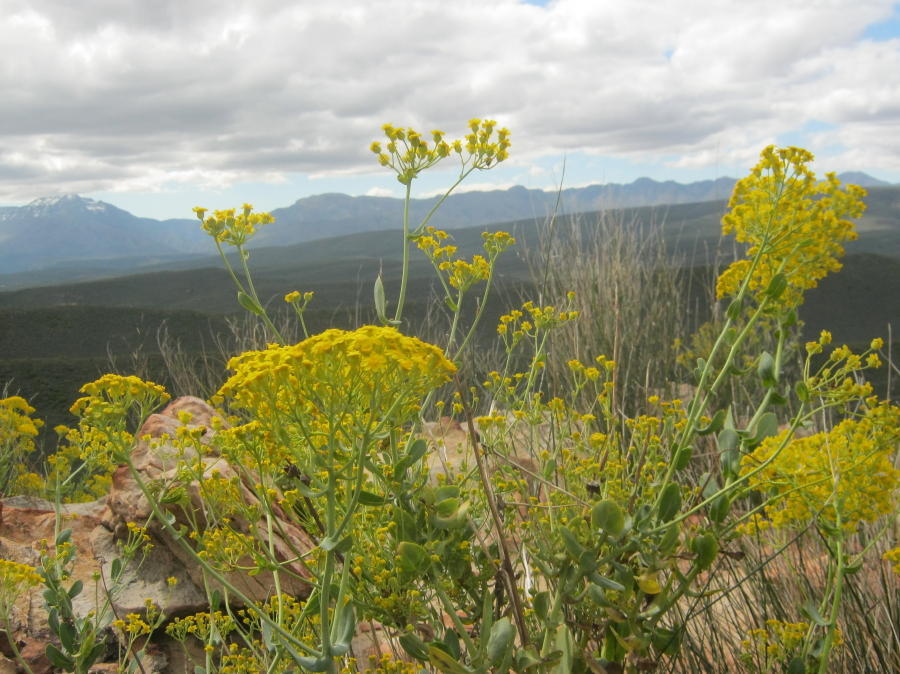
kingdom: Plantae
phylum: Tracheophyta
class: Magnoliopsida
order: Asterales
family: Asteraceae
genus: Othonna
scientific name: Othonna parviflora
